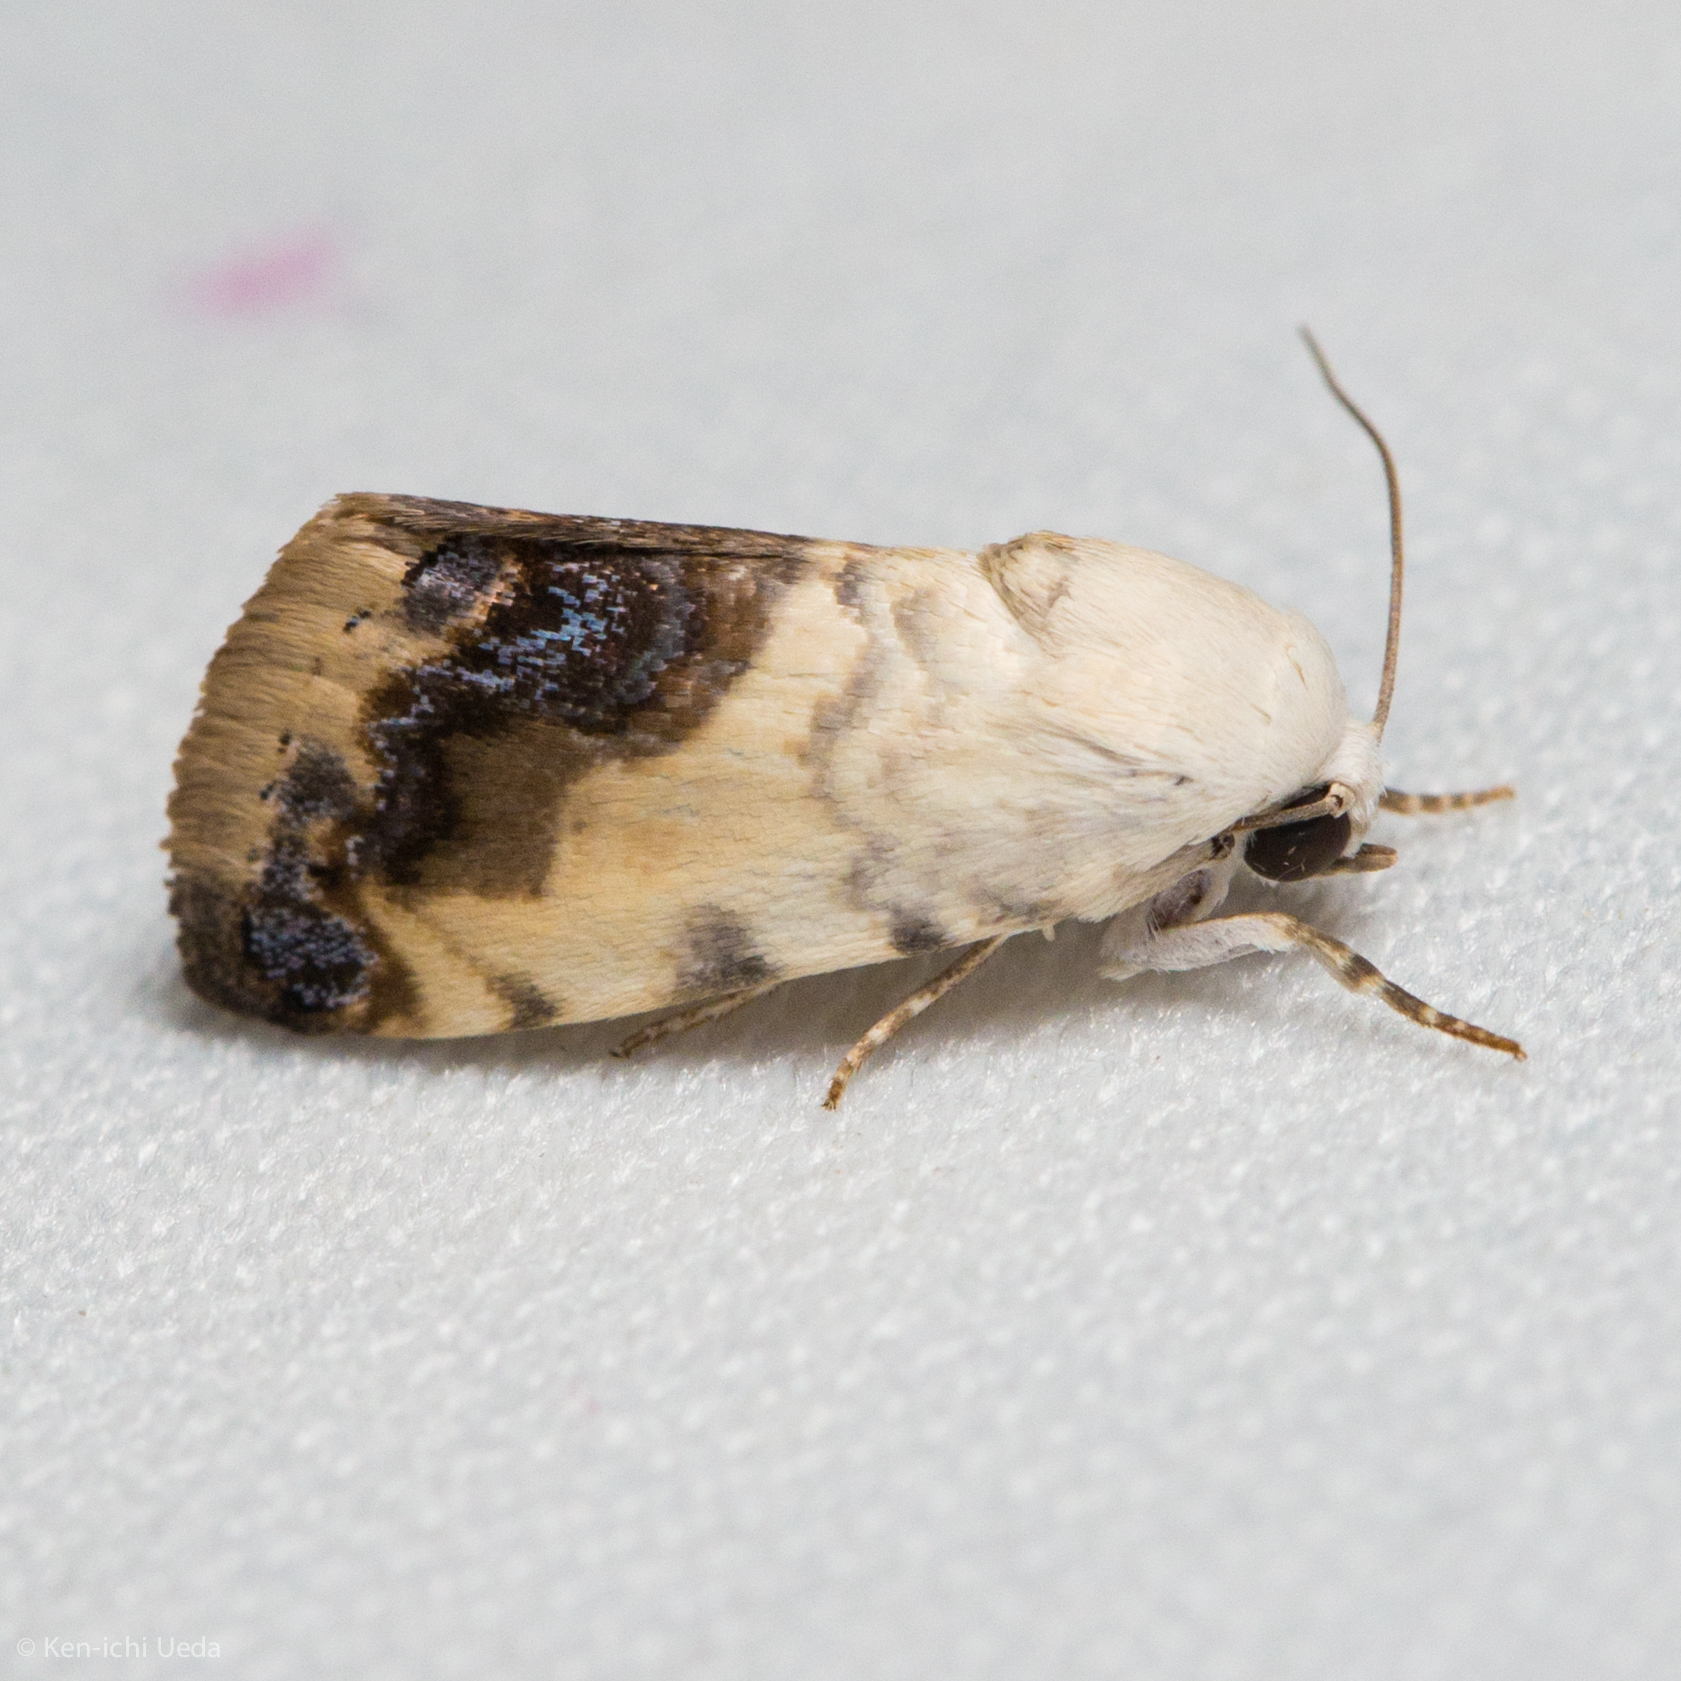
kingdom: Animalia
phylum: Arthropoda
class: Insecta
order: Lepidoptera
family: Noctuidae
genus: Acontia
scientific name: Acontia behrii
